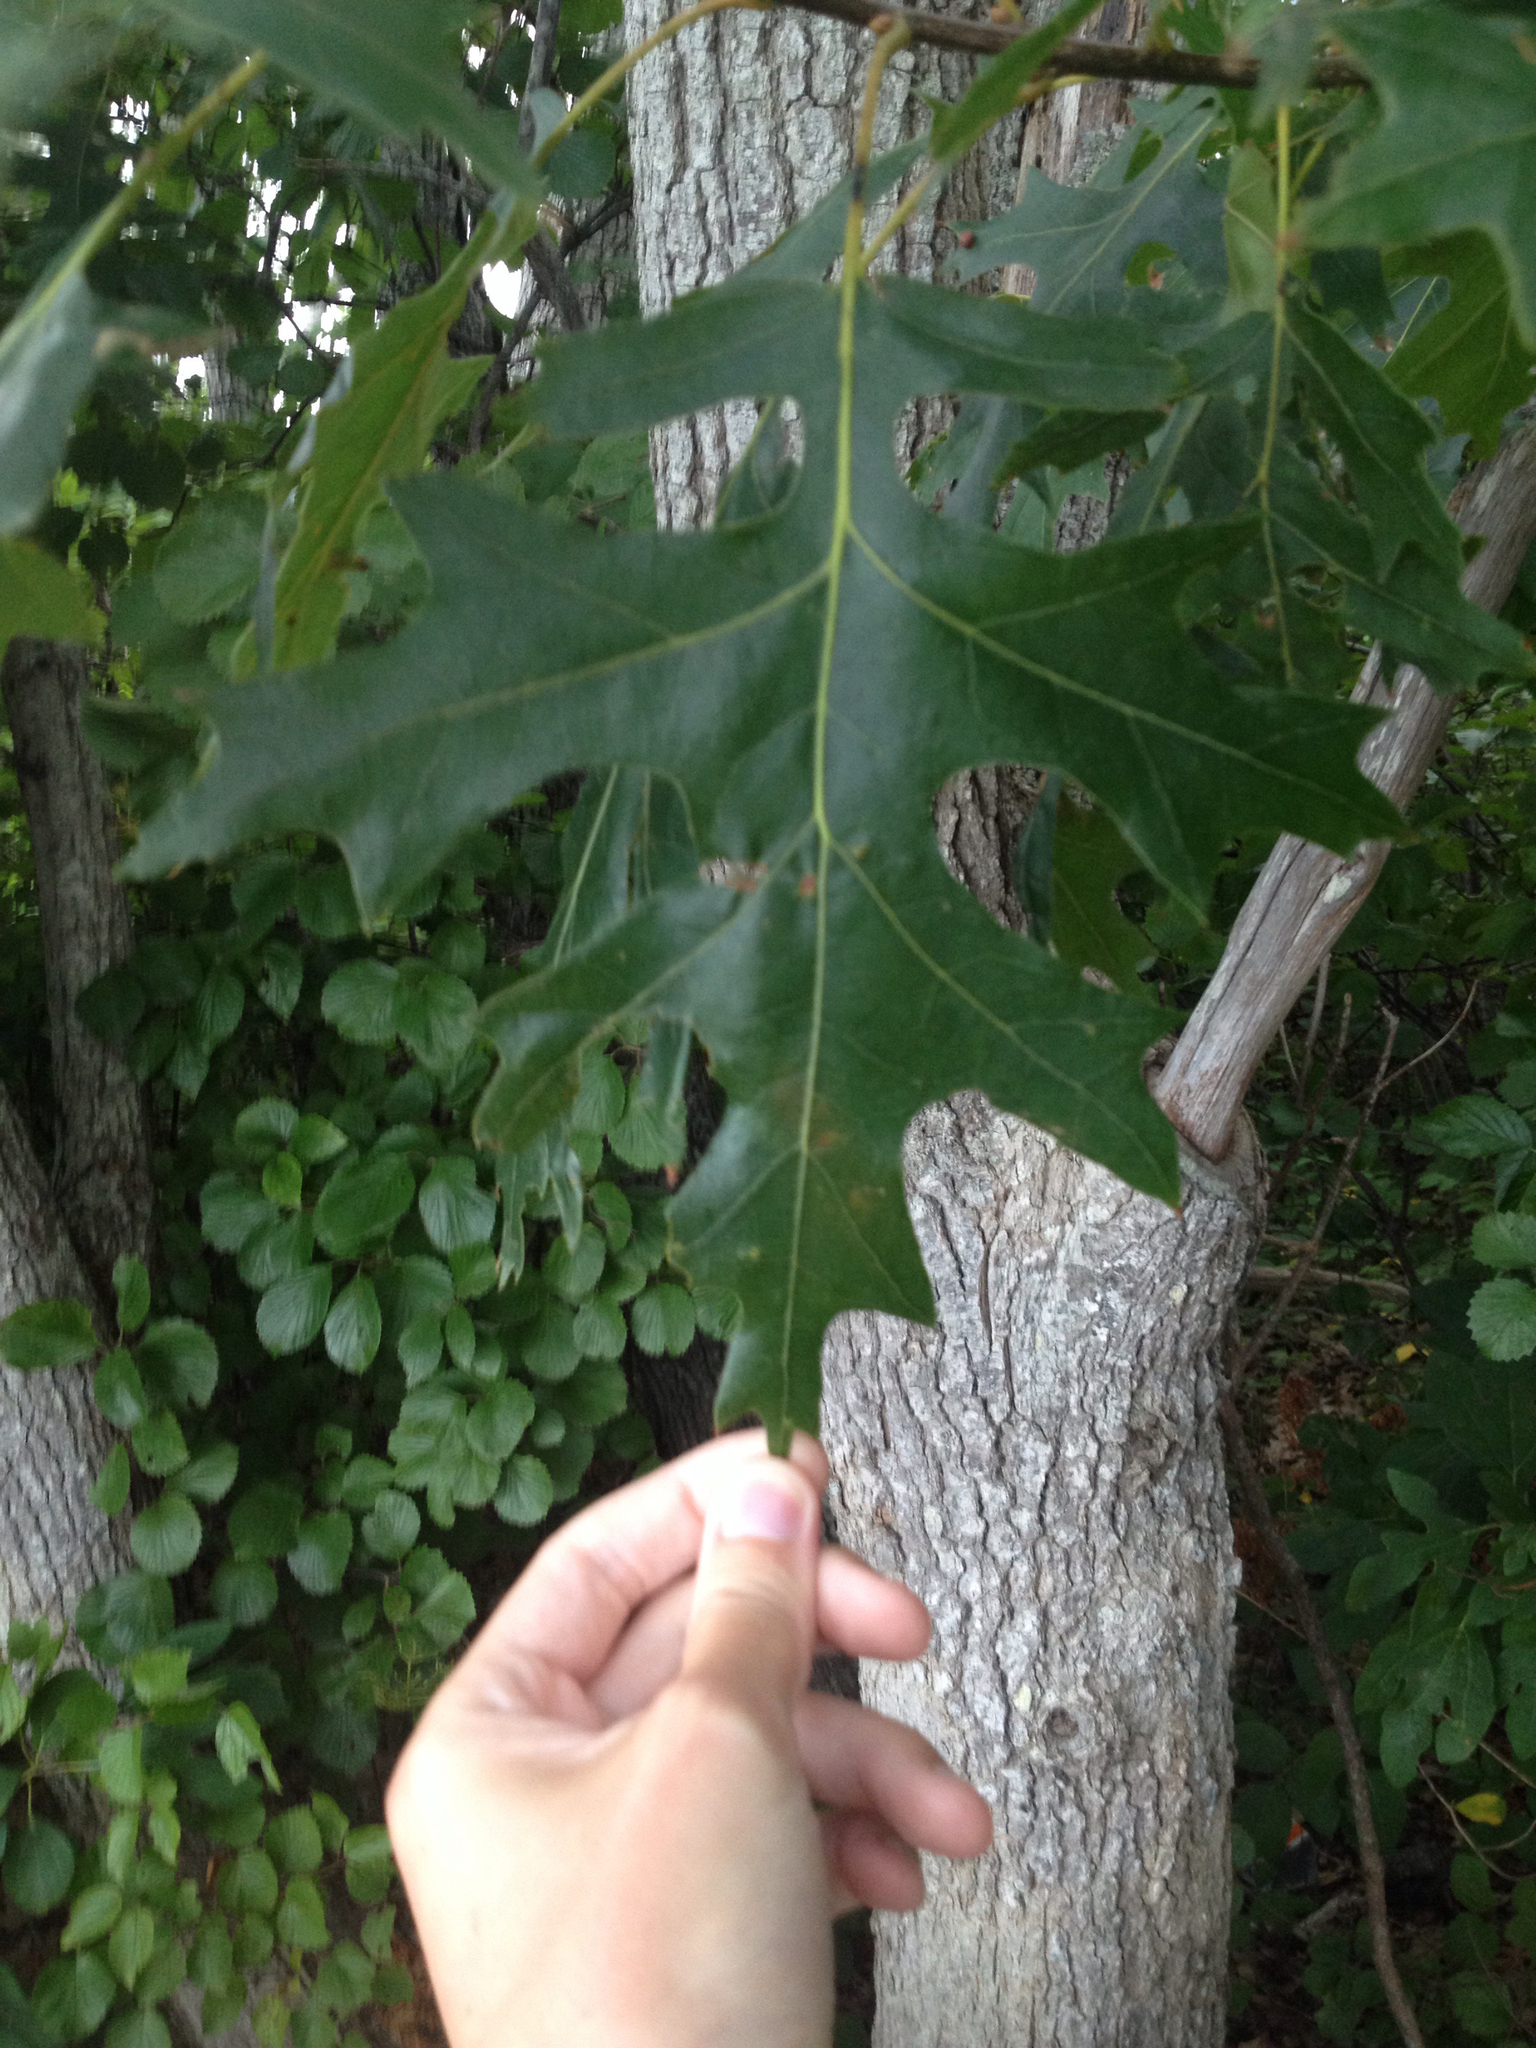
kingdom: Plantae
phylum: Tracheophyta
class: Magnoliopsida
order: Fagales
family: Fagaceae
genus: Quercus
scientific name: Quercus velutina
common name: Black oak
